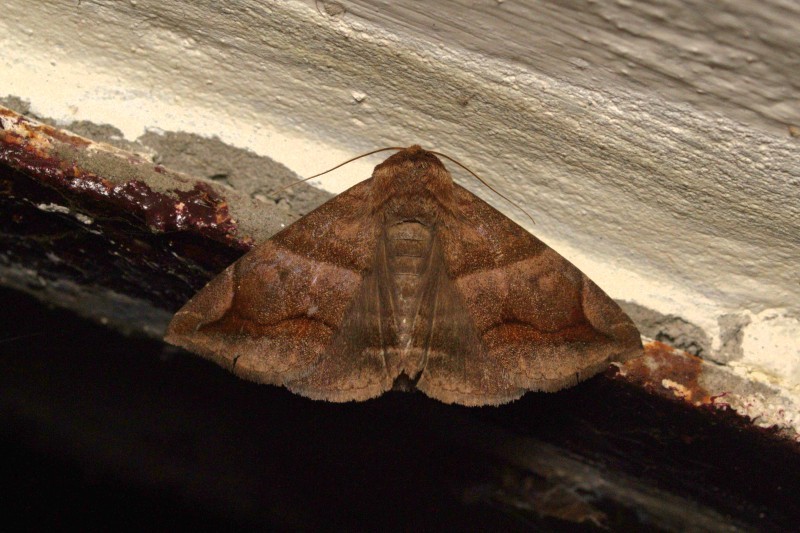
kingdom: Animalia
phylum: Arthropoda
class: Insecta
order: Lepidoptera
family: Erebidae
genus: Buzara
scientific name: Buzara onelia
